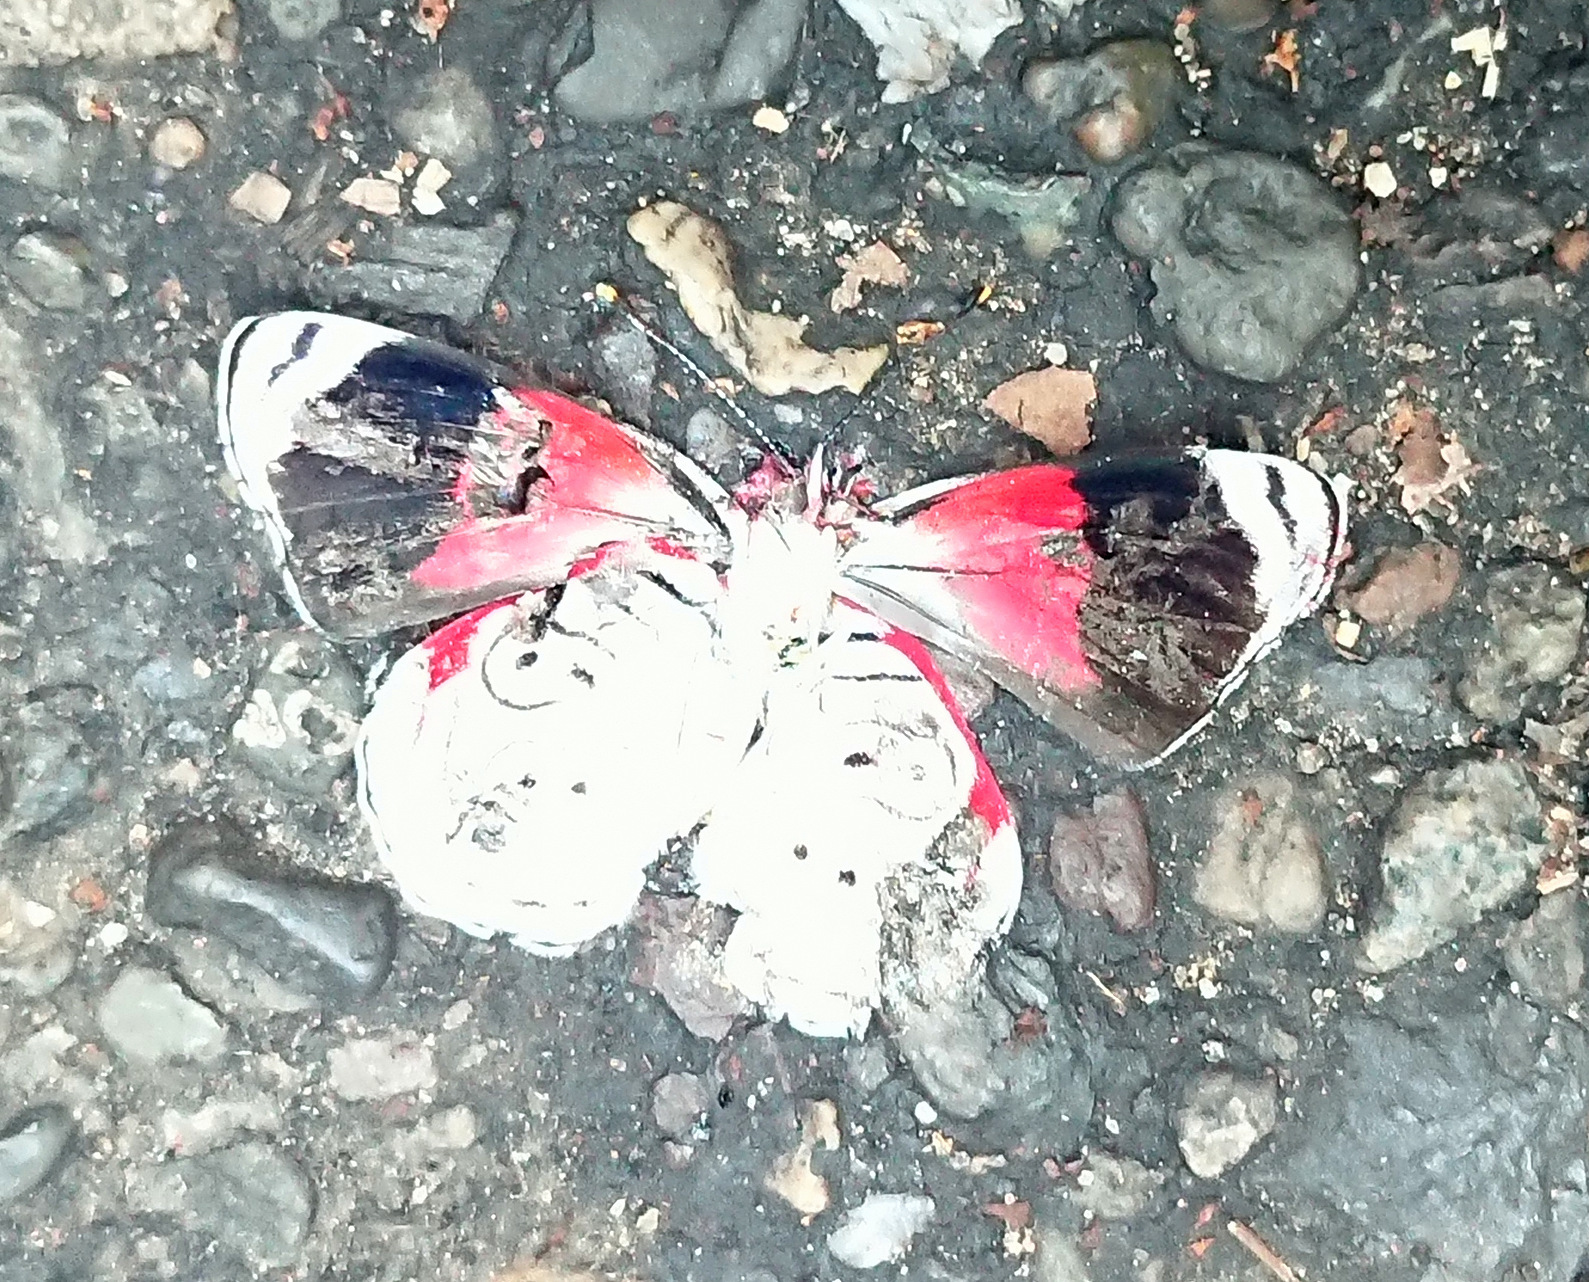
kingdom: Animalia
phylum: Arthropoda
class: Insecta
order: Lepidoptera
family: Nymphalidae
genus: Diaethria
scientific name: Diaethria anna
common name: Anna’s eighty-eight
